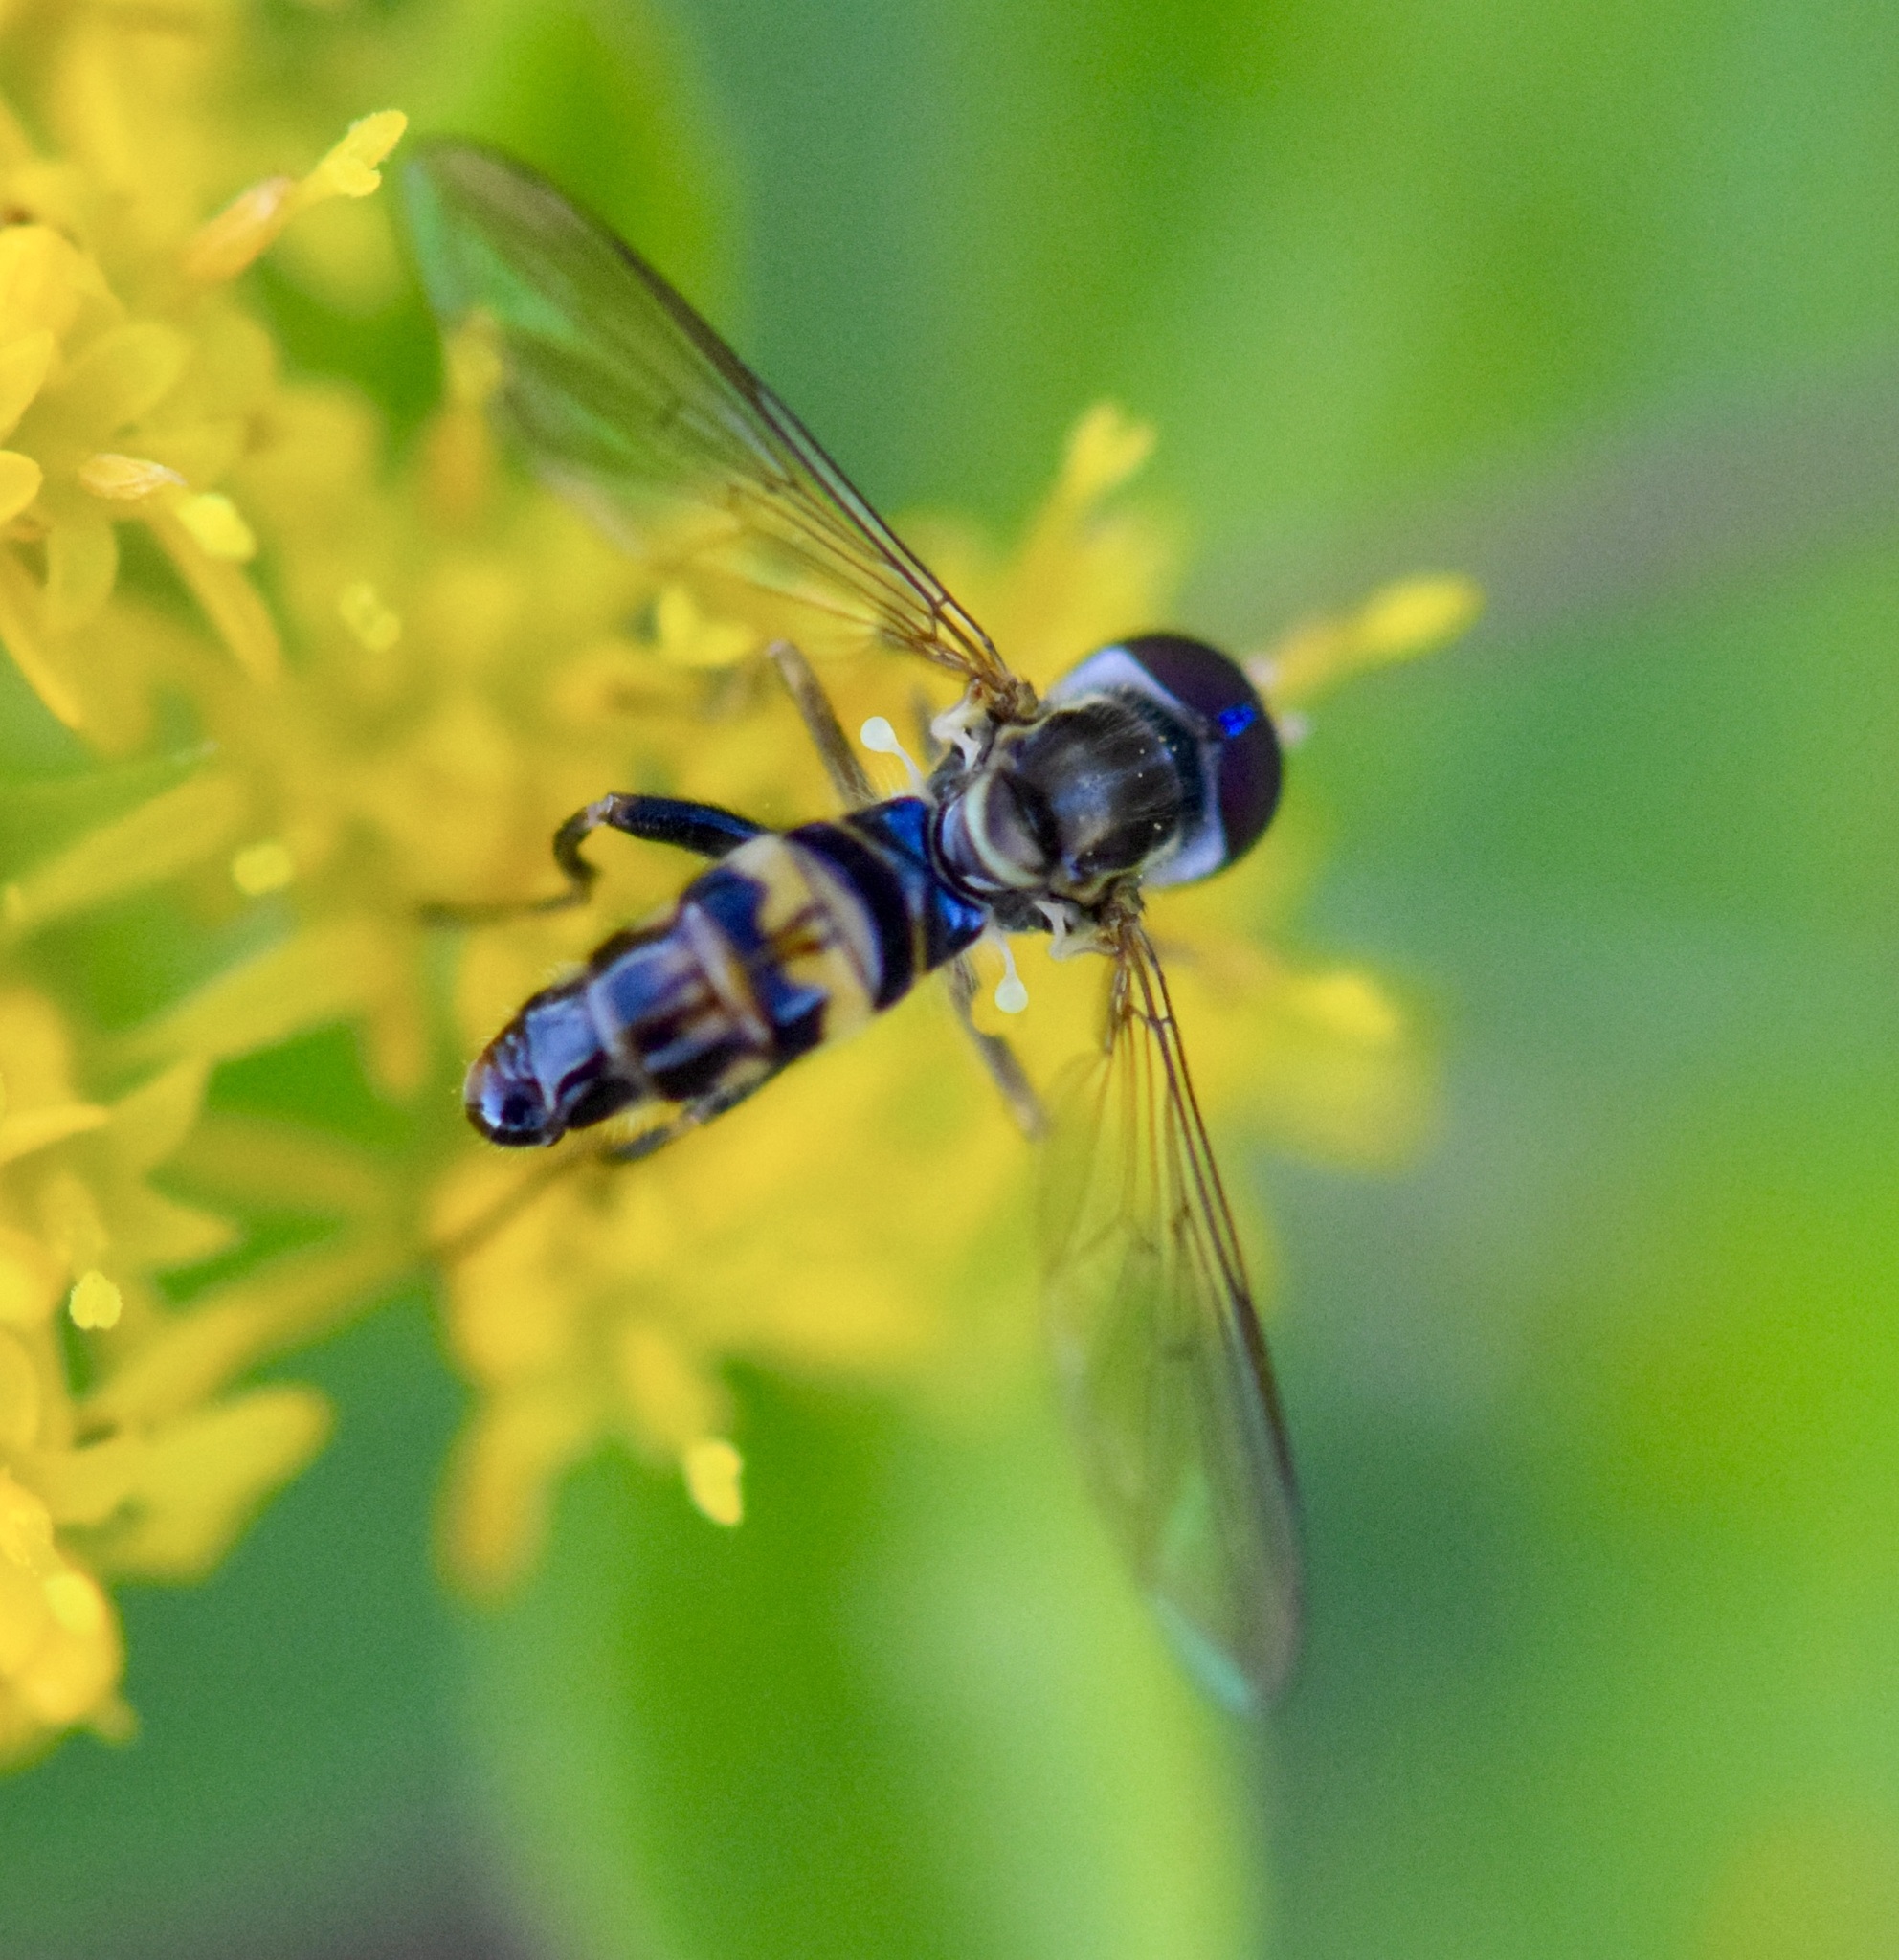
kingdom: Animalia
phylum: Arthropoda
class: Insecta
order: Diptera
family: Syrphidae
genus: Toxomerus
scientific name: Toxomerus geminatus
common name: Eastern calligrapher
